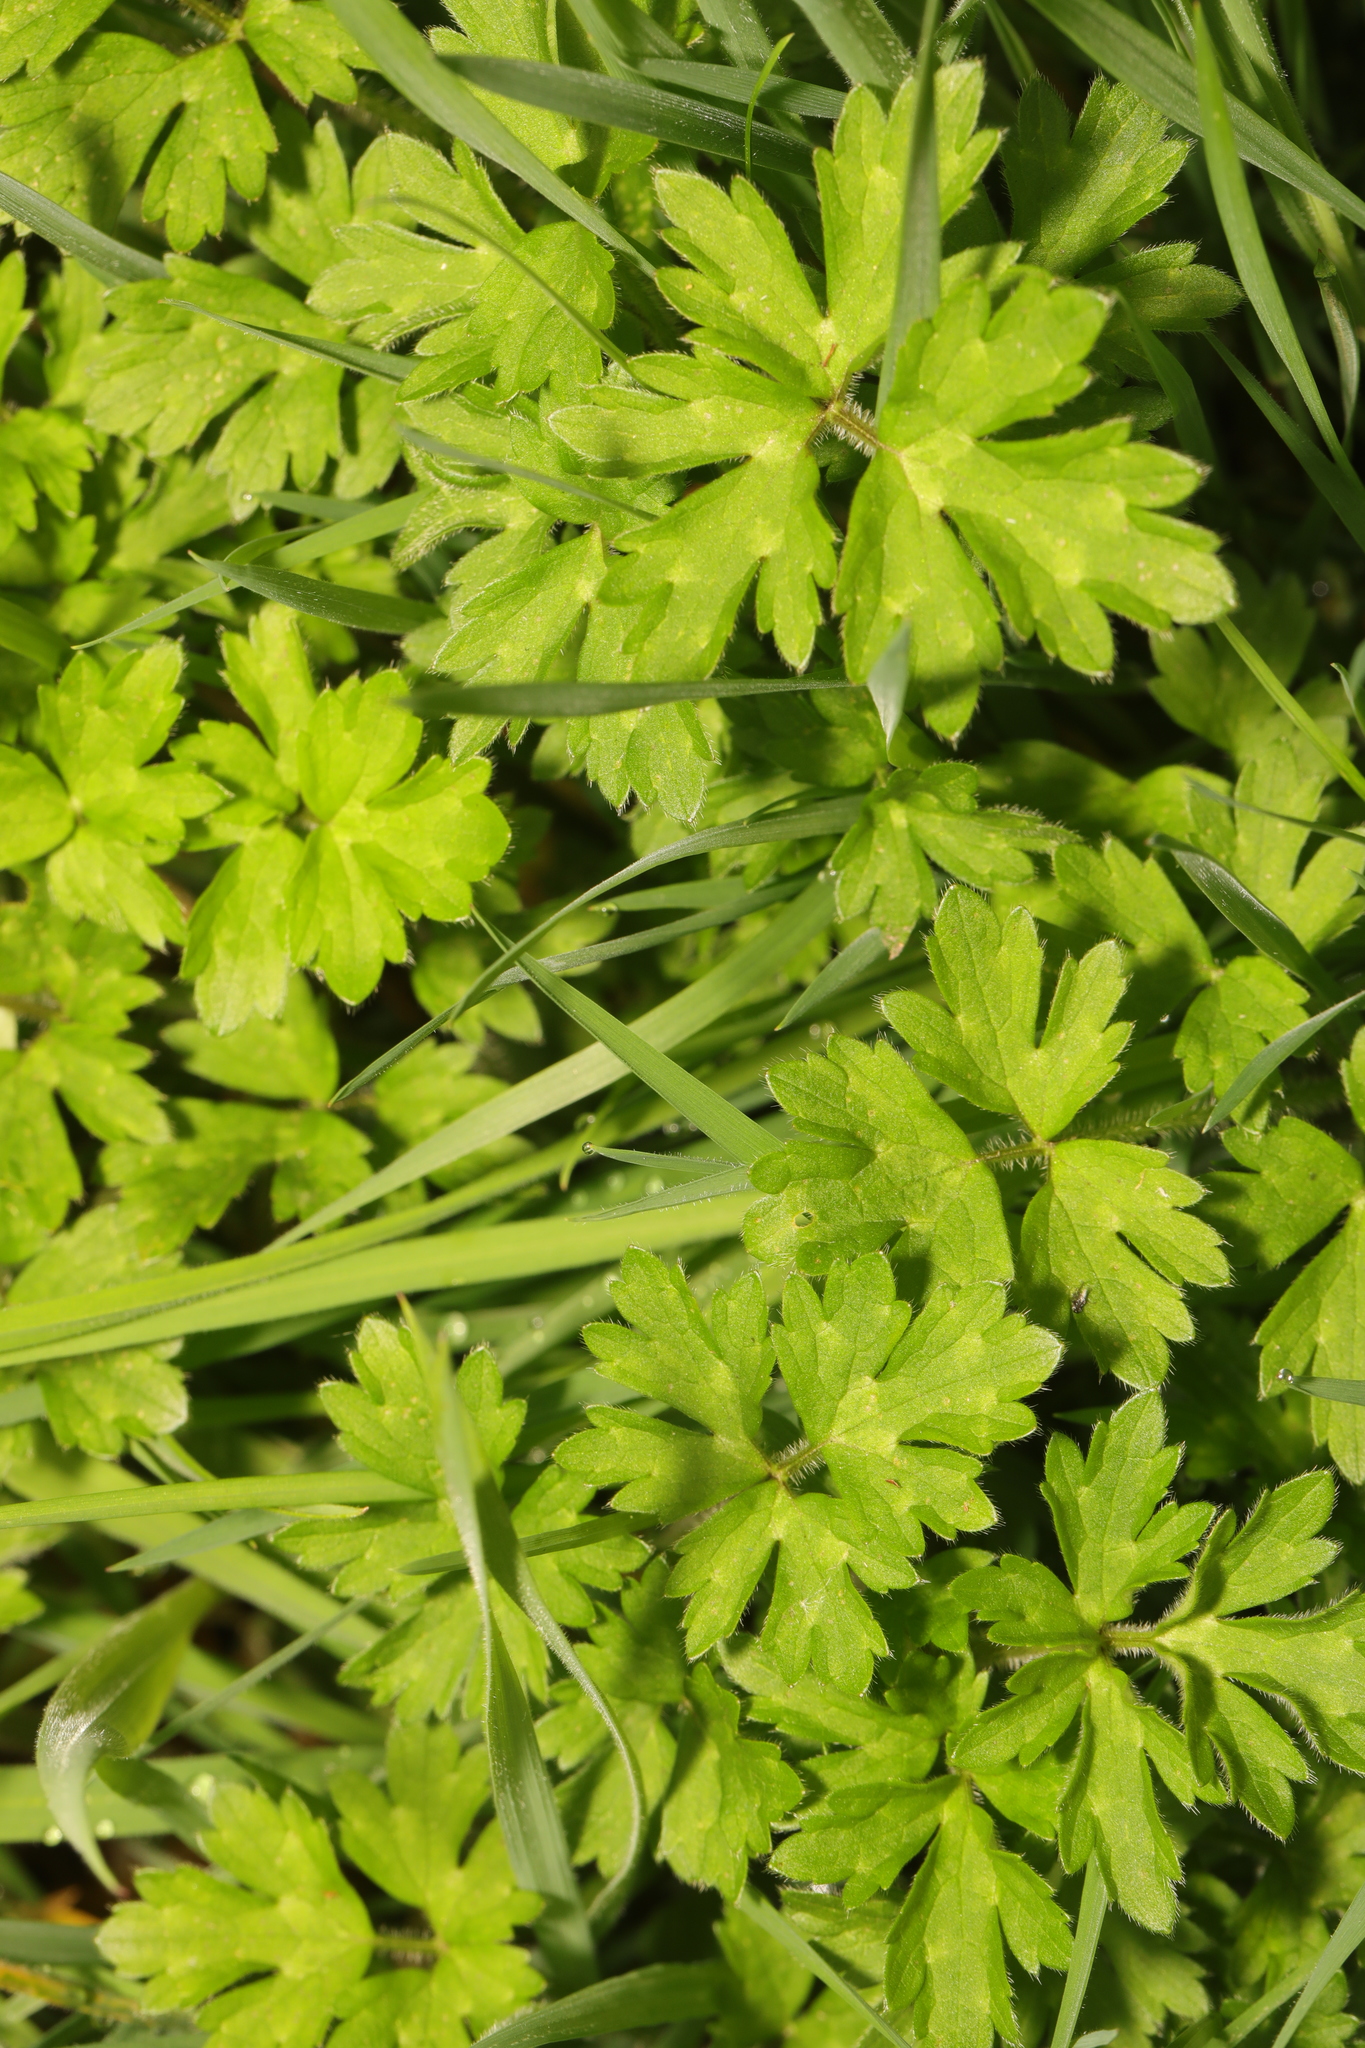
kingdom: Plantae
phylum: Tracheophyta
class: Magnoliopsida
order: Ranunculales
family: Ranunculaceae
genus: Ranunculus
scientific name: Ranunculus repens
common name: Creeping buttercup
